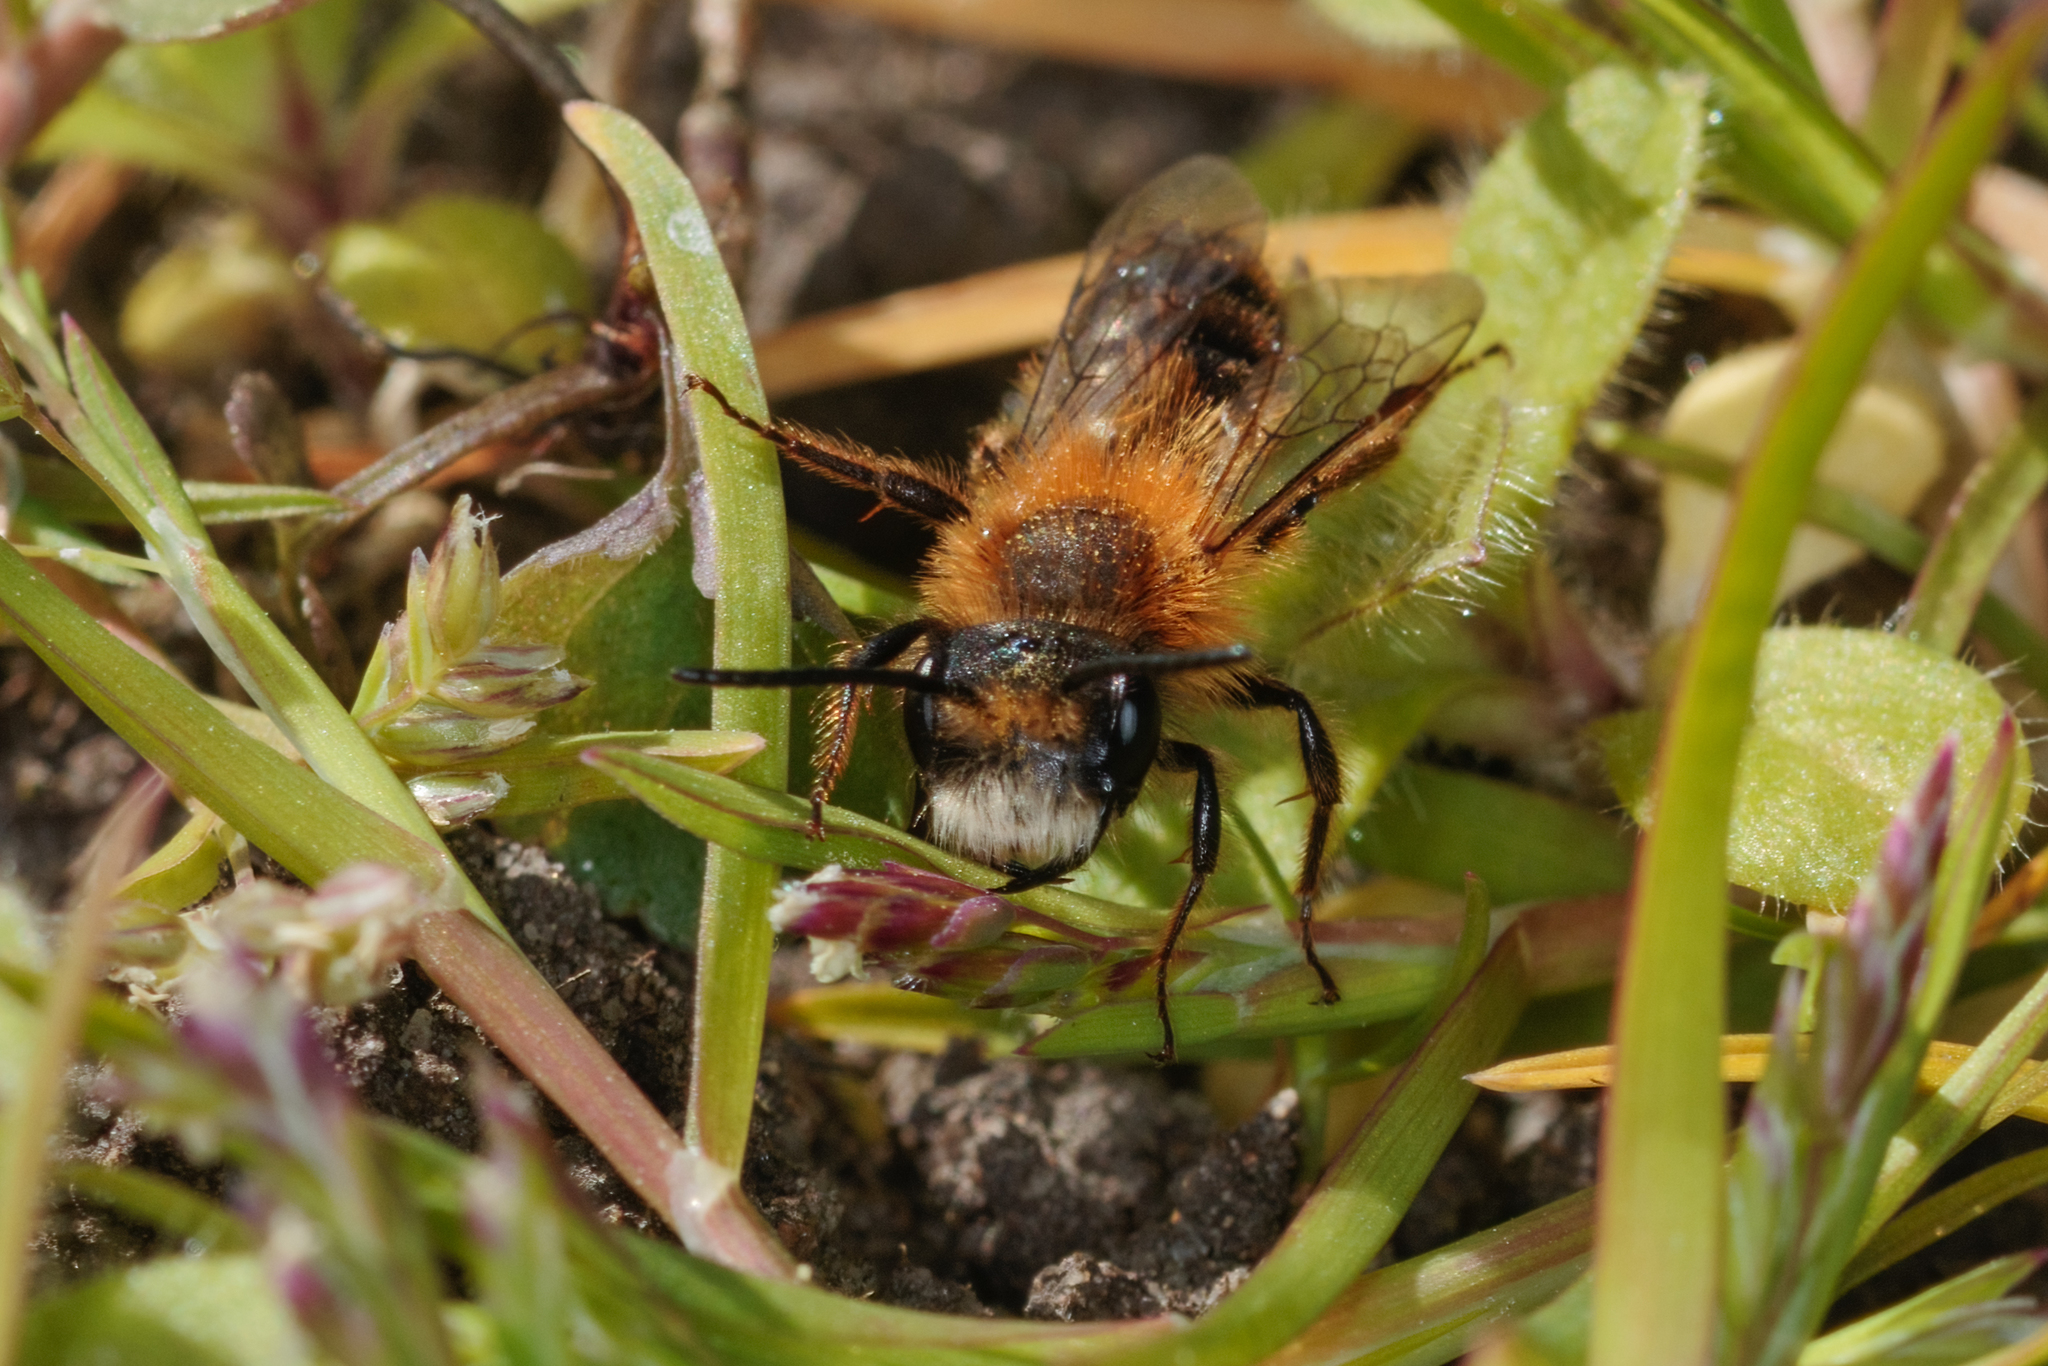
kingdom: Animalia
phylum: Arthropoda
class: Insecta
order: Hymenoptera
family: Andrenidae
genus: Andrena
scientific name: Andrena fulva
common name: Tawny mining bee
